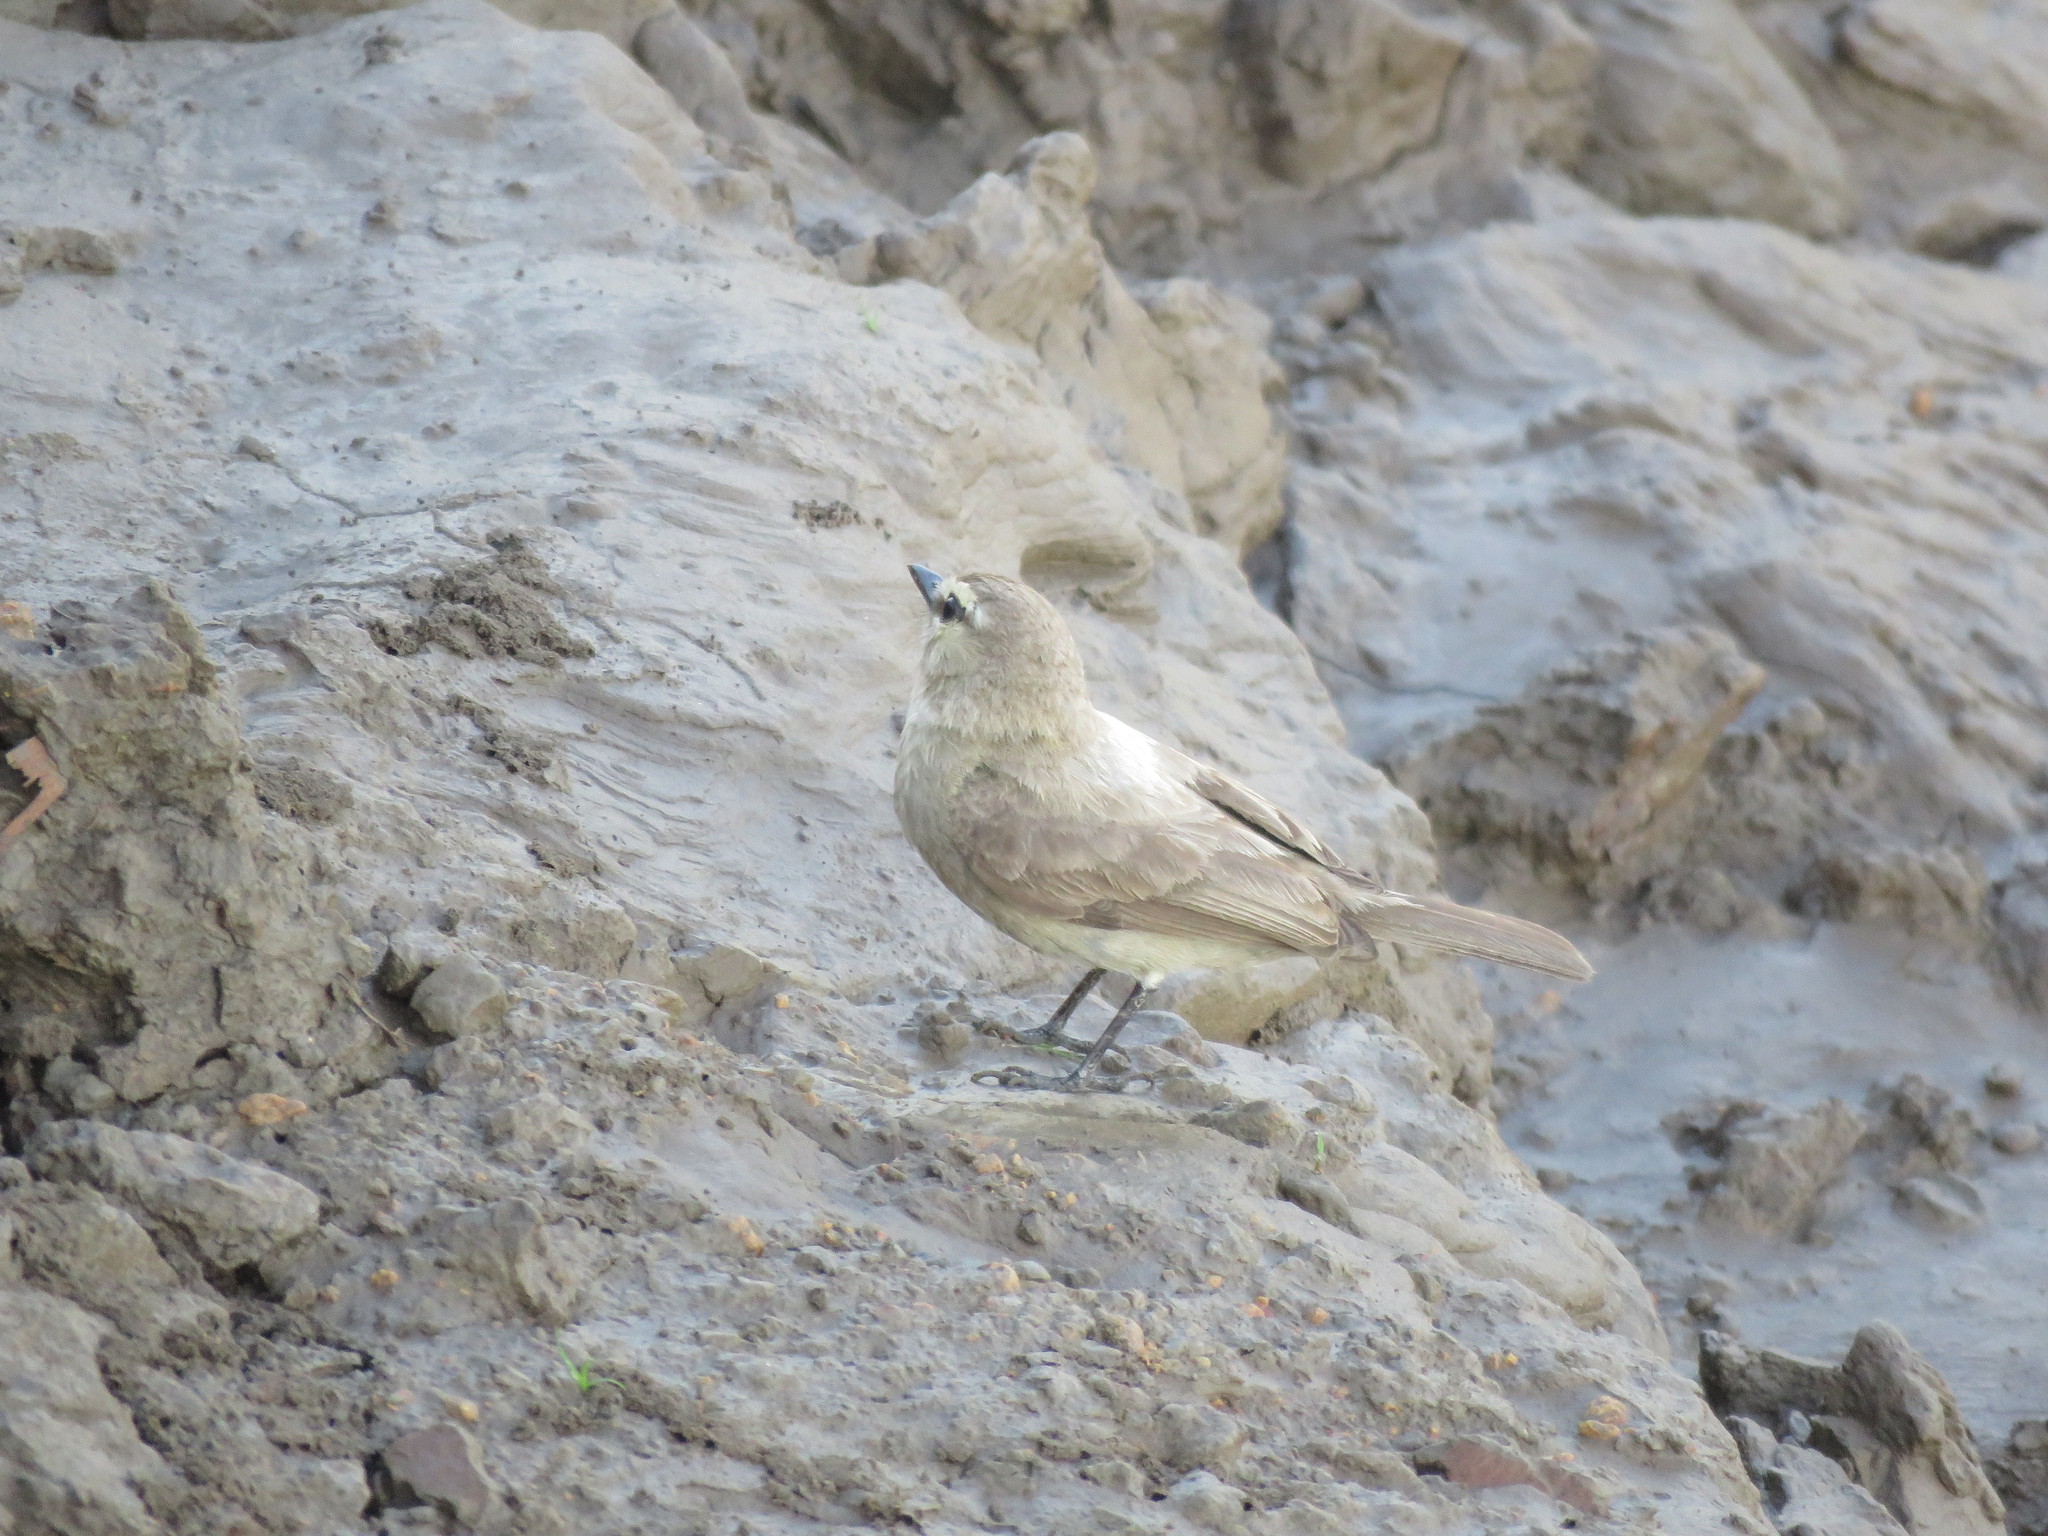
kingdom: Animalia
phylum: Chordata
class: Aves
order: Passeriformes
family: Tyrannidae
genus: Ochthornis
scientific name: Ochthornis littoralis
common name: Drab water tyrant
